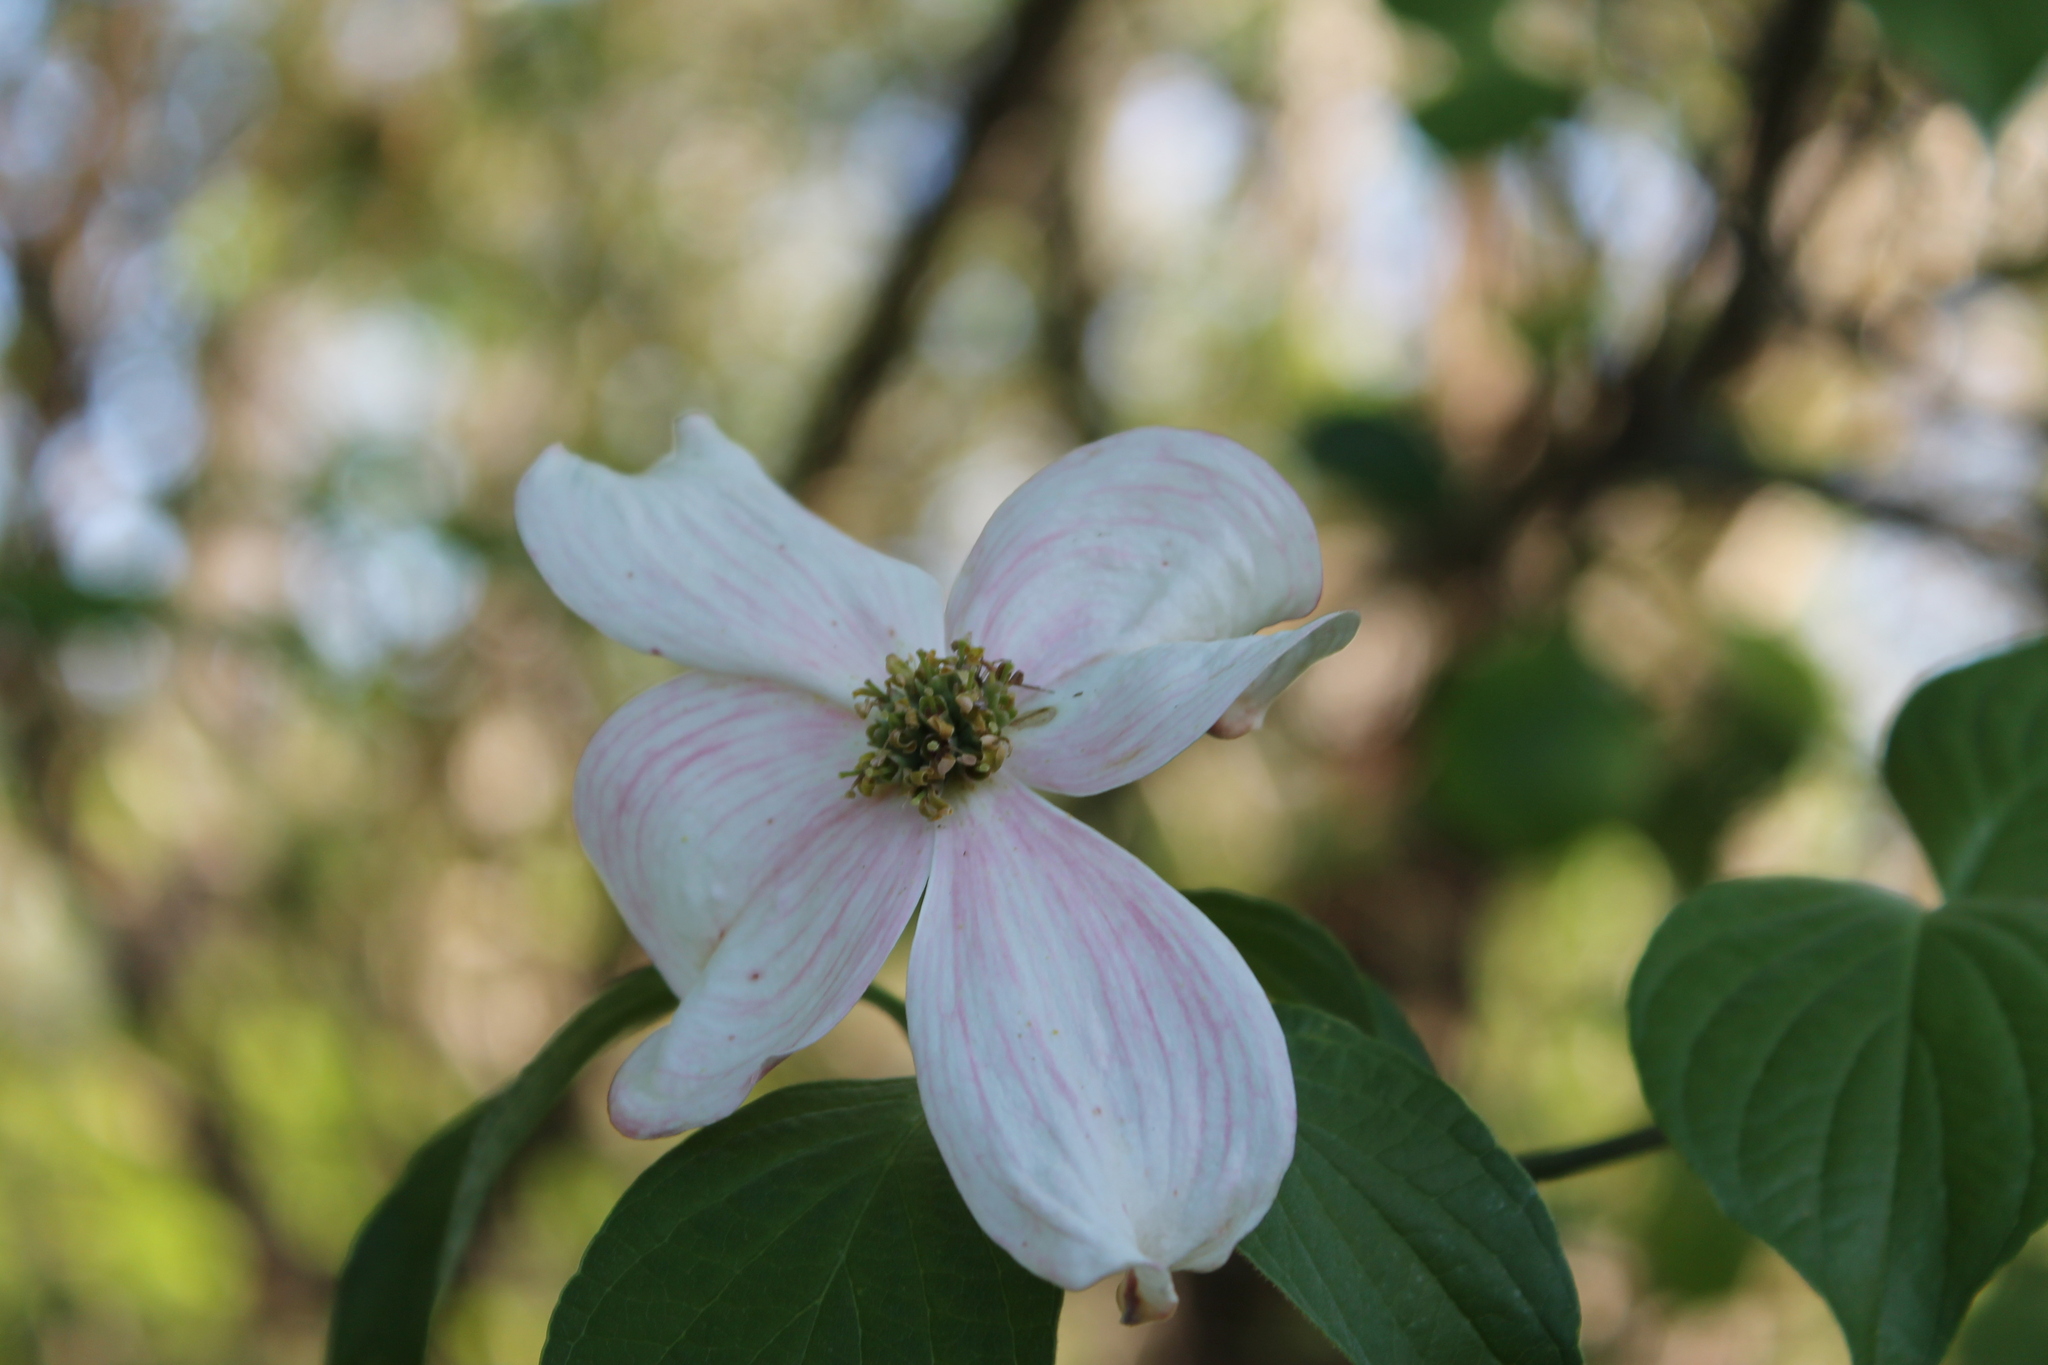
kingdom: Plantae
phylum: Tracheophyta
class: Magnoliopsida
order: Cornales
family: Cornaceae
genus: Cornus
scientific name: Cornus florida
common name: Flowering dogwood
